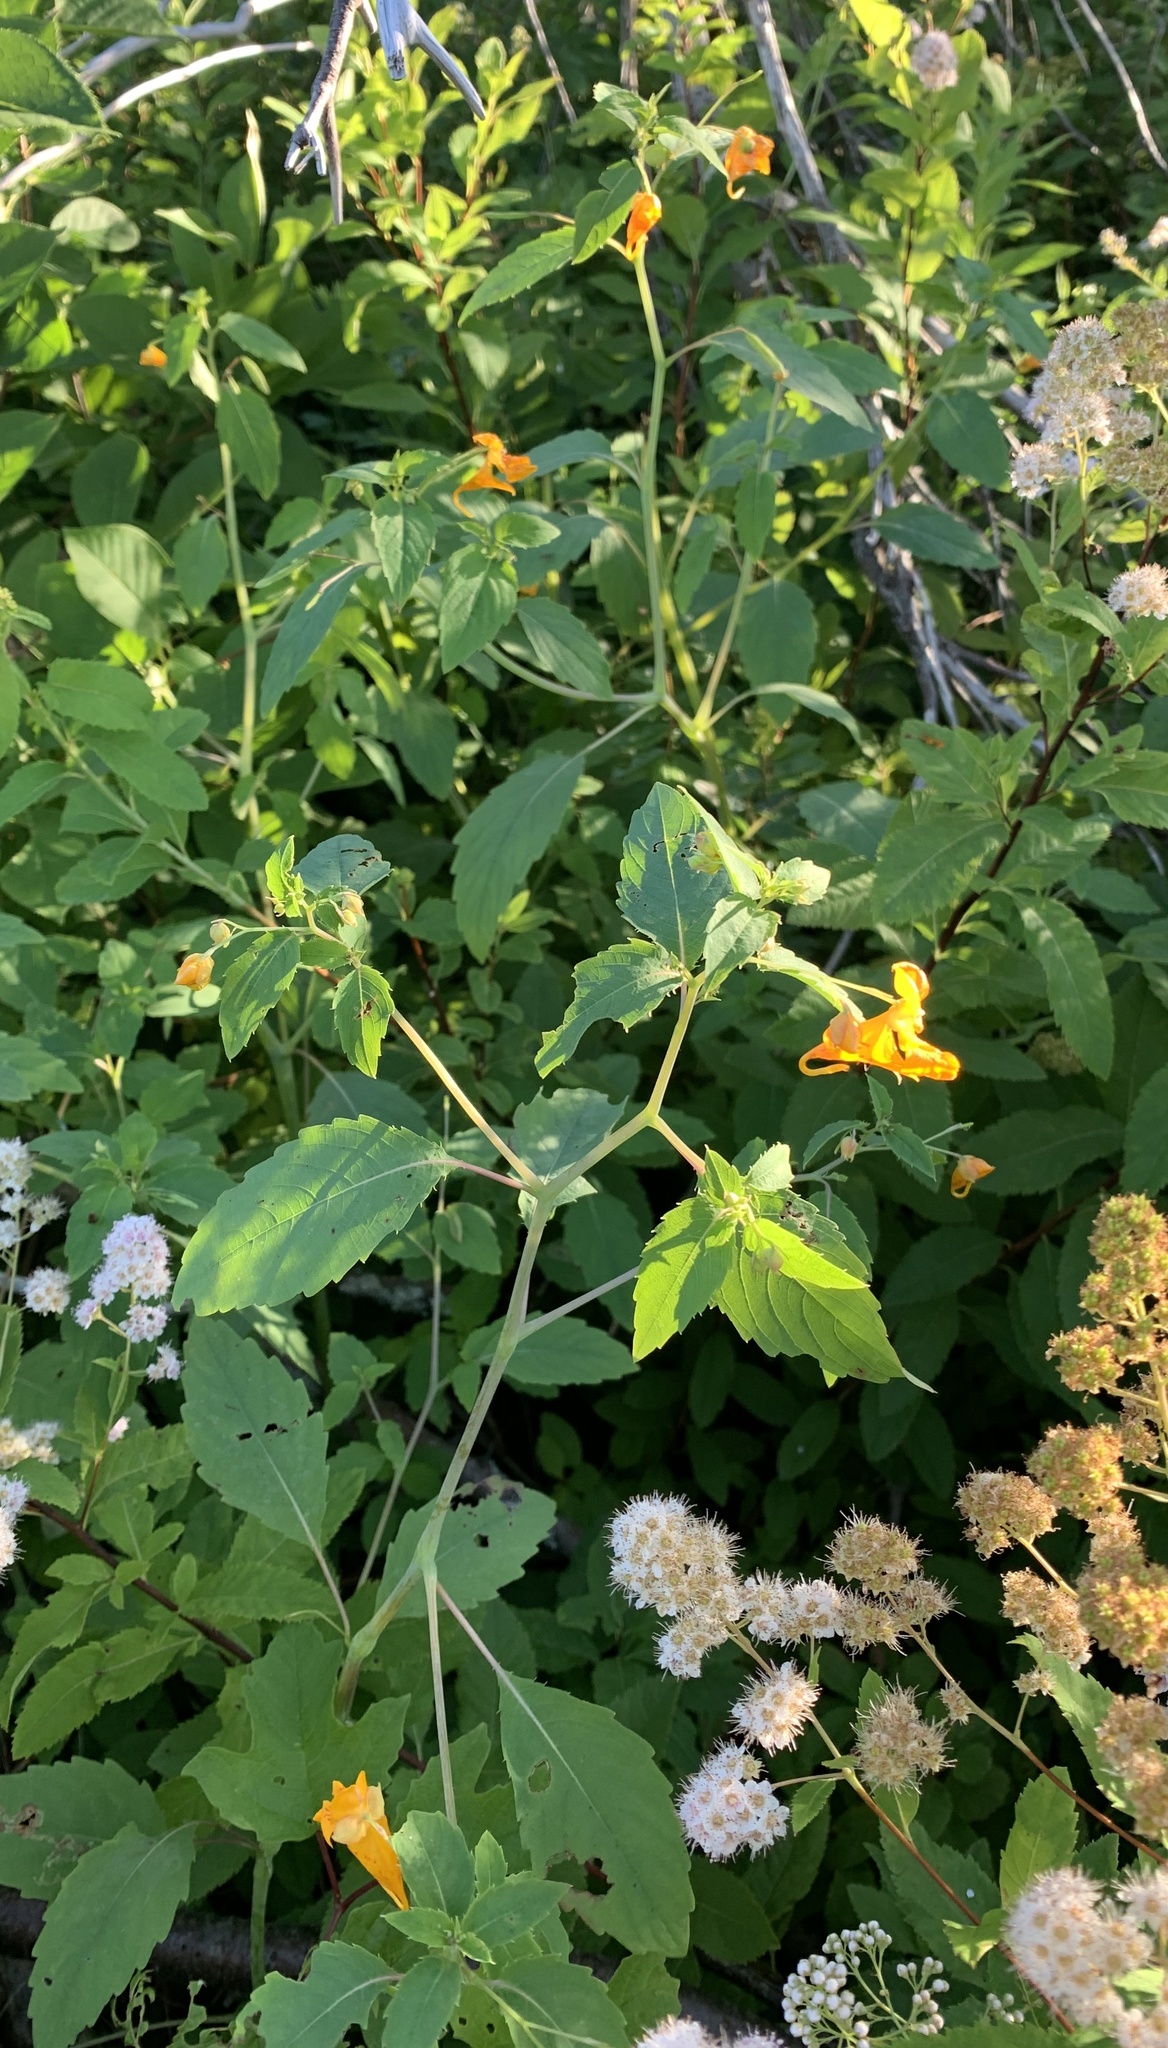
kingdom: Plantae
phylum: Tracheophyta
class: Magnoliopsida
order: Ericales
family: Balsaminaceae
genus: Impatiens
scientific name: Impatiens capensis
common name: Orange balsam
